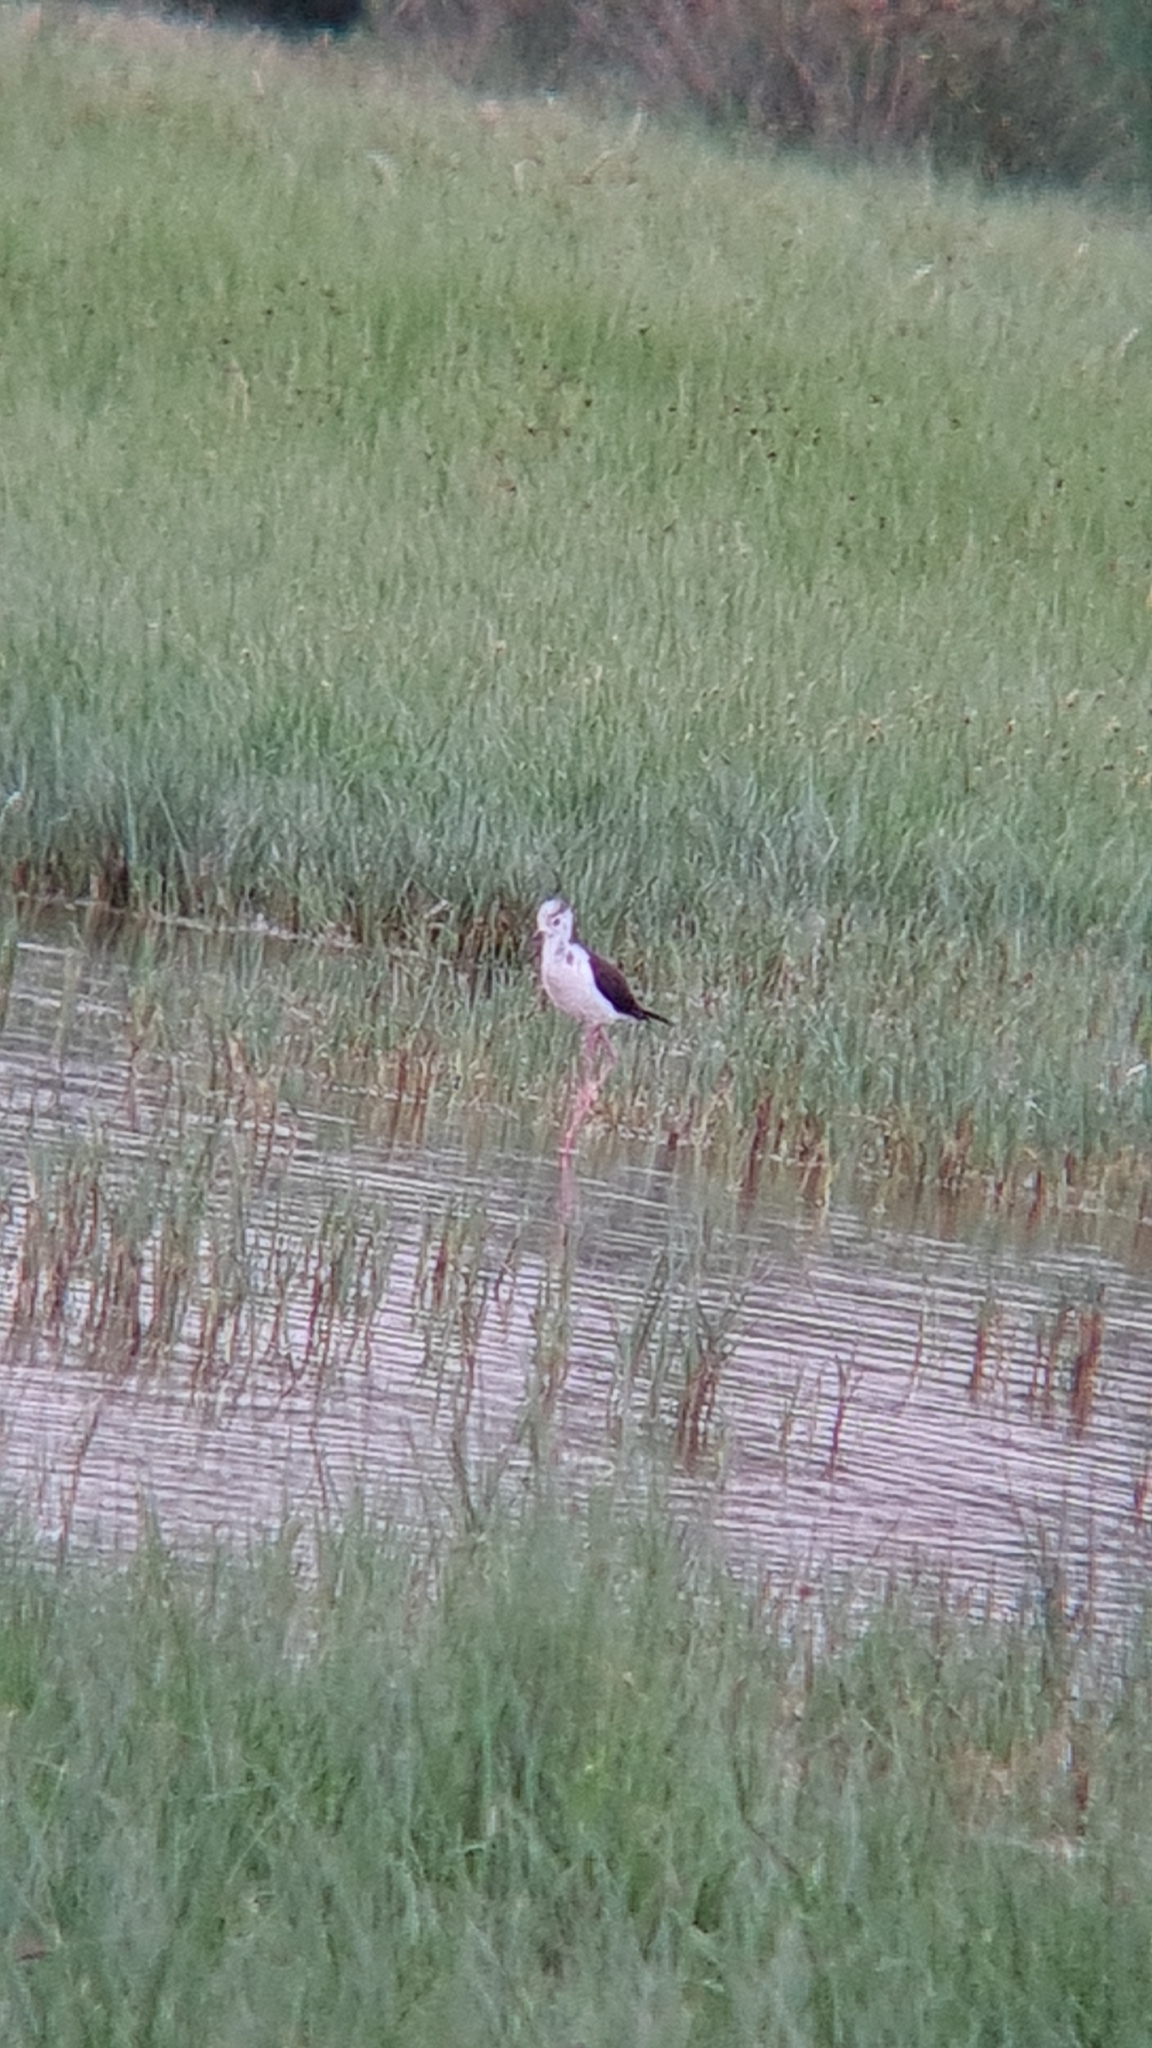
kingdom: Animalia
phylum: Chordata
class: Aves
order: Charadriiformes
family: Recurvirostridae
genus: Himantopus
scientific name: Himantopus himantopus
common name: Black-winged stilt
